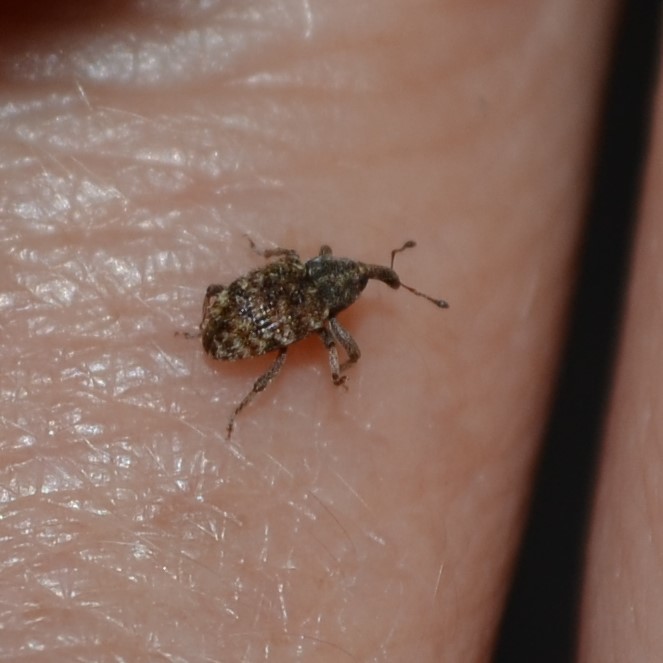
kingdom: Animalia
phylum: Arthropoda
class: Insecta
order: Coleoptera
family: Curculionidae
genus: Micralcinus
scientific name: Micralcinus
